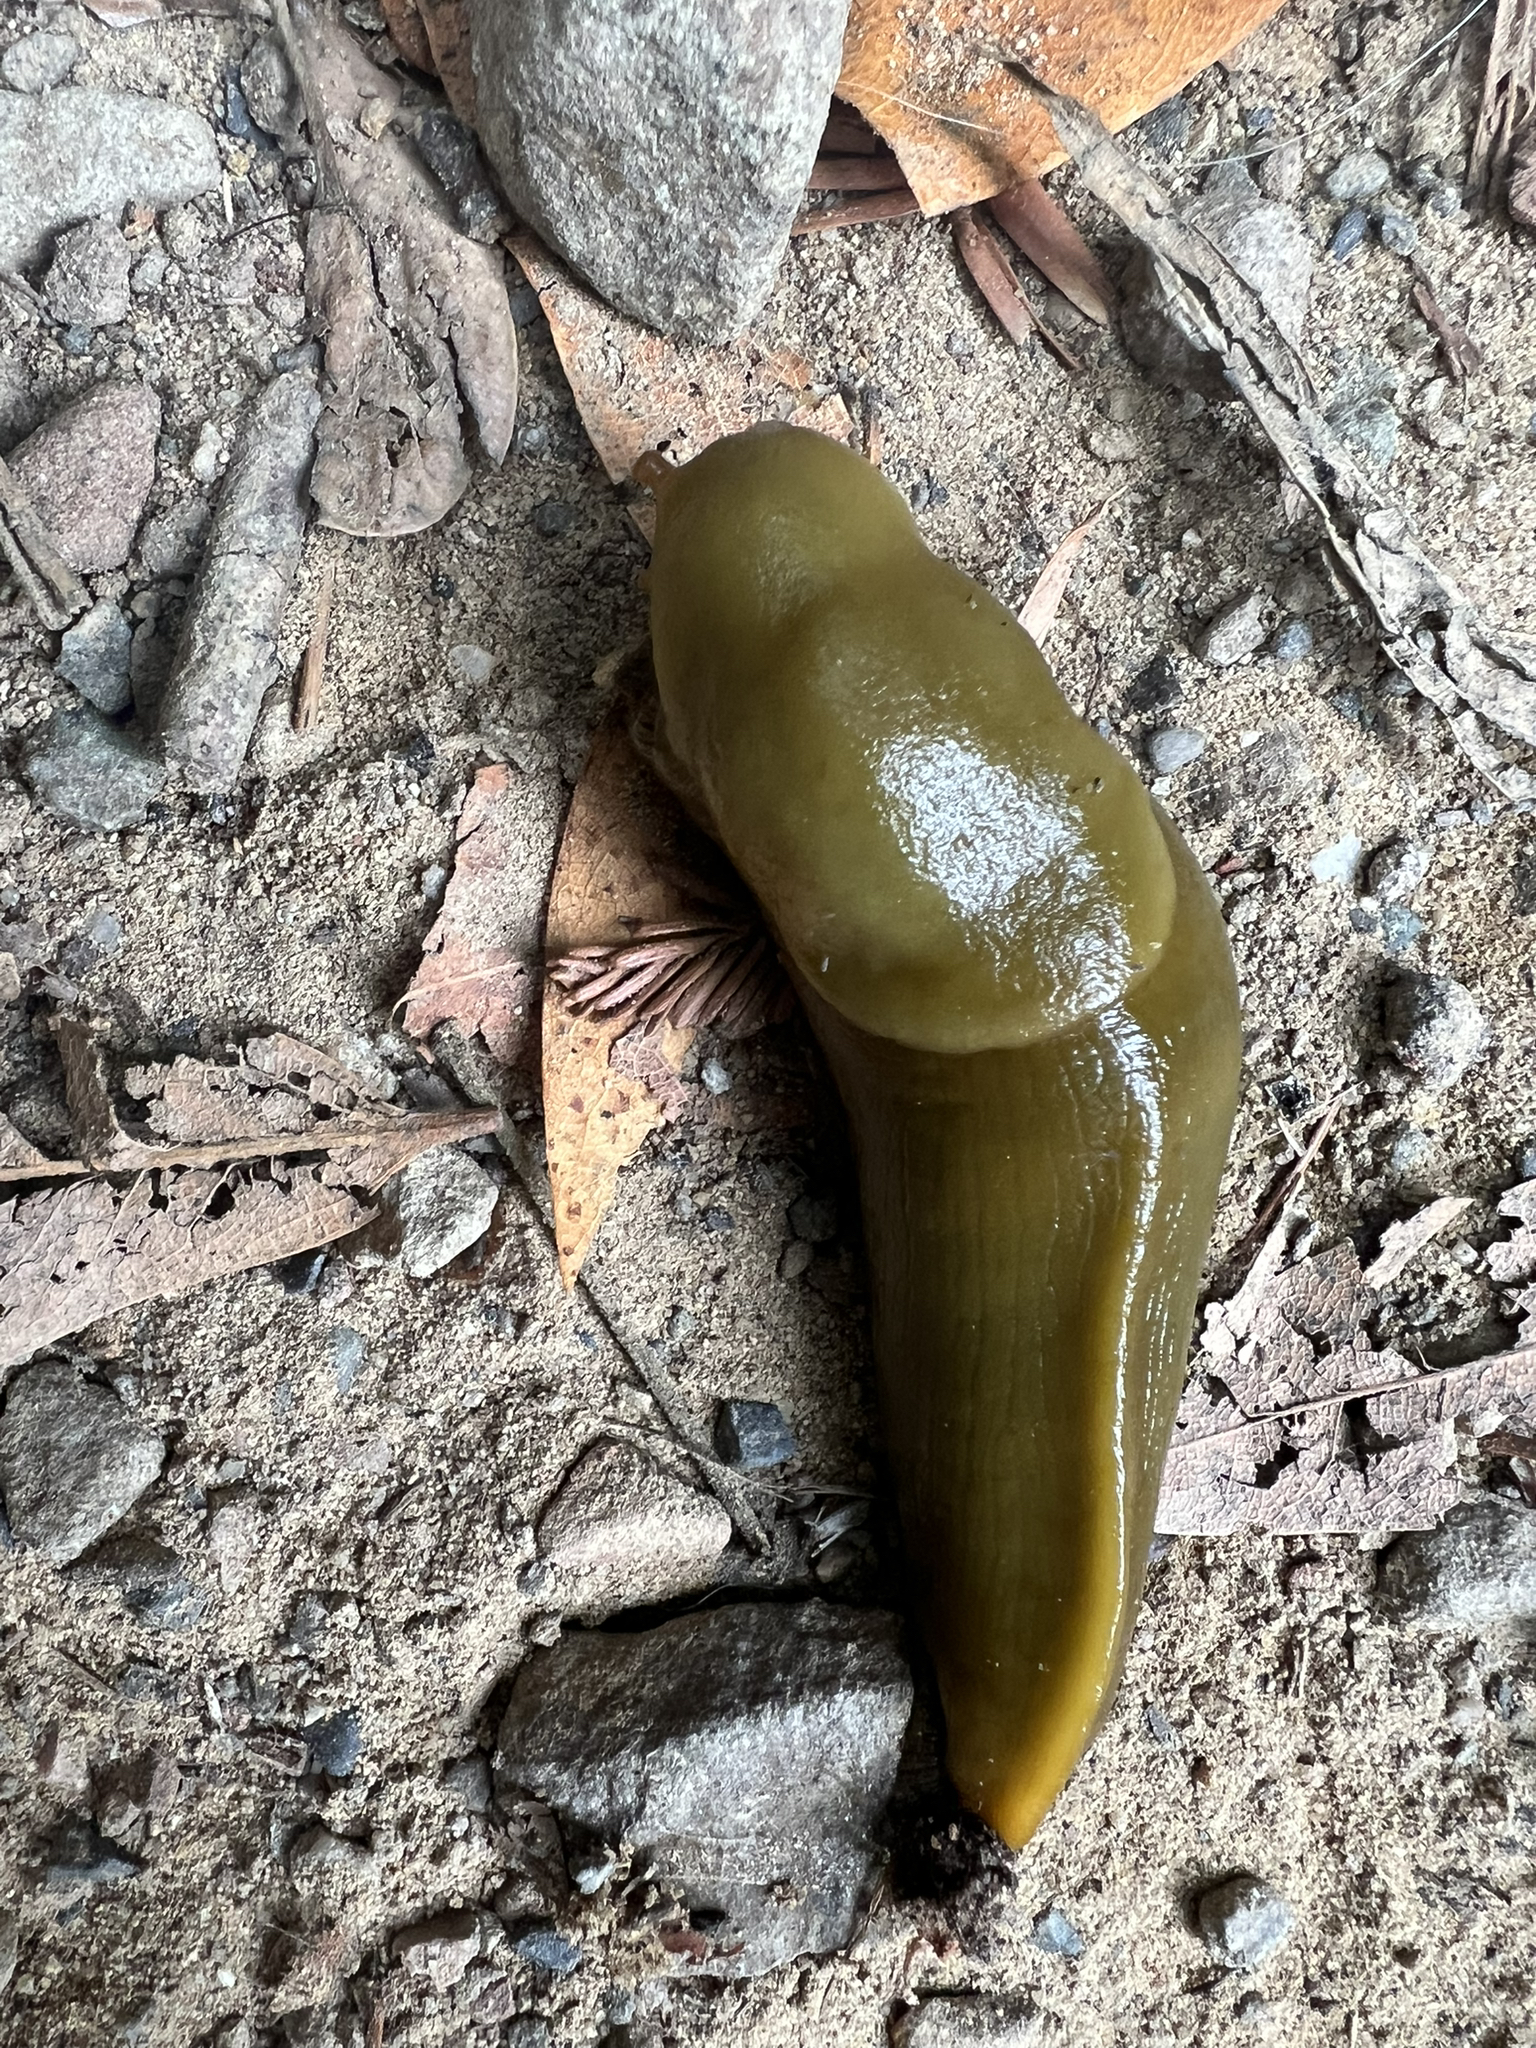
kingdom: Animalia
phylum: Mollusca
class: Gastropoda
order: Stylommatophora
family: Ariolimacidae
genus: Ariolimax
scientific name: Ariolimax buttoni
